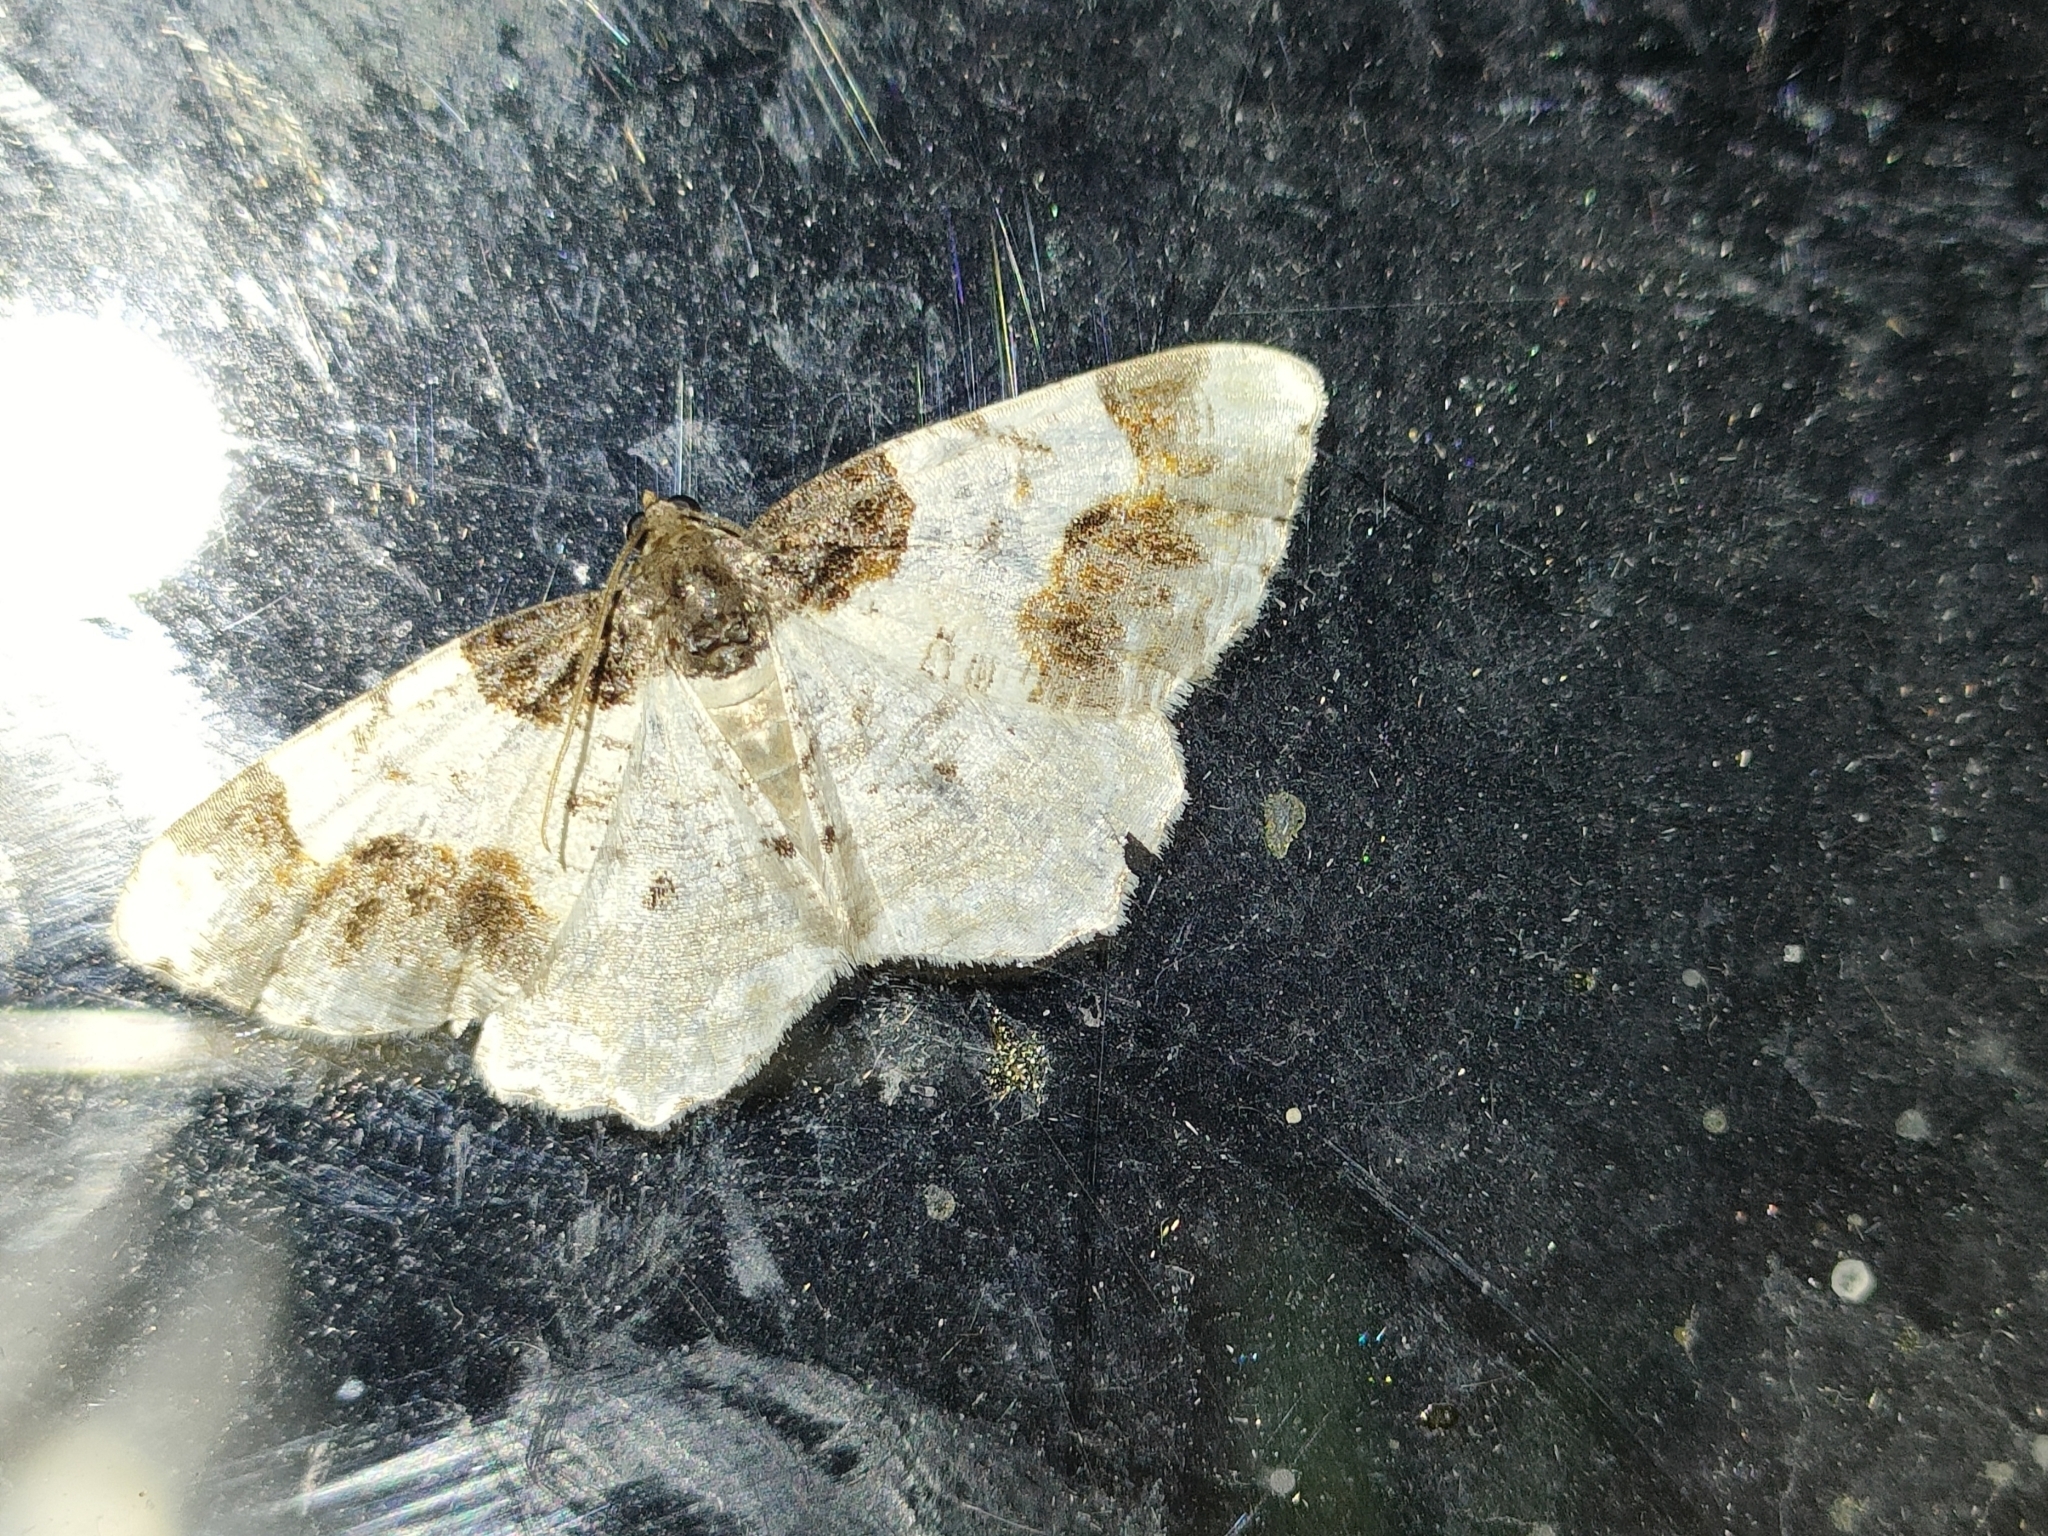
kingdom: Animalia
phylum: Arthropoda
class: Insecta
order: Lepidoptera
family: Geometridae
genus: Ligdia
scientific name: Ligdia adustata
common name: Scorched carpet
